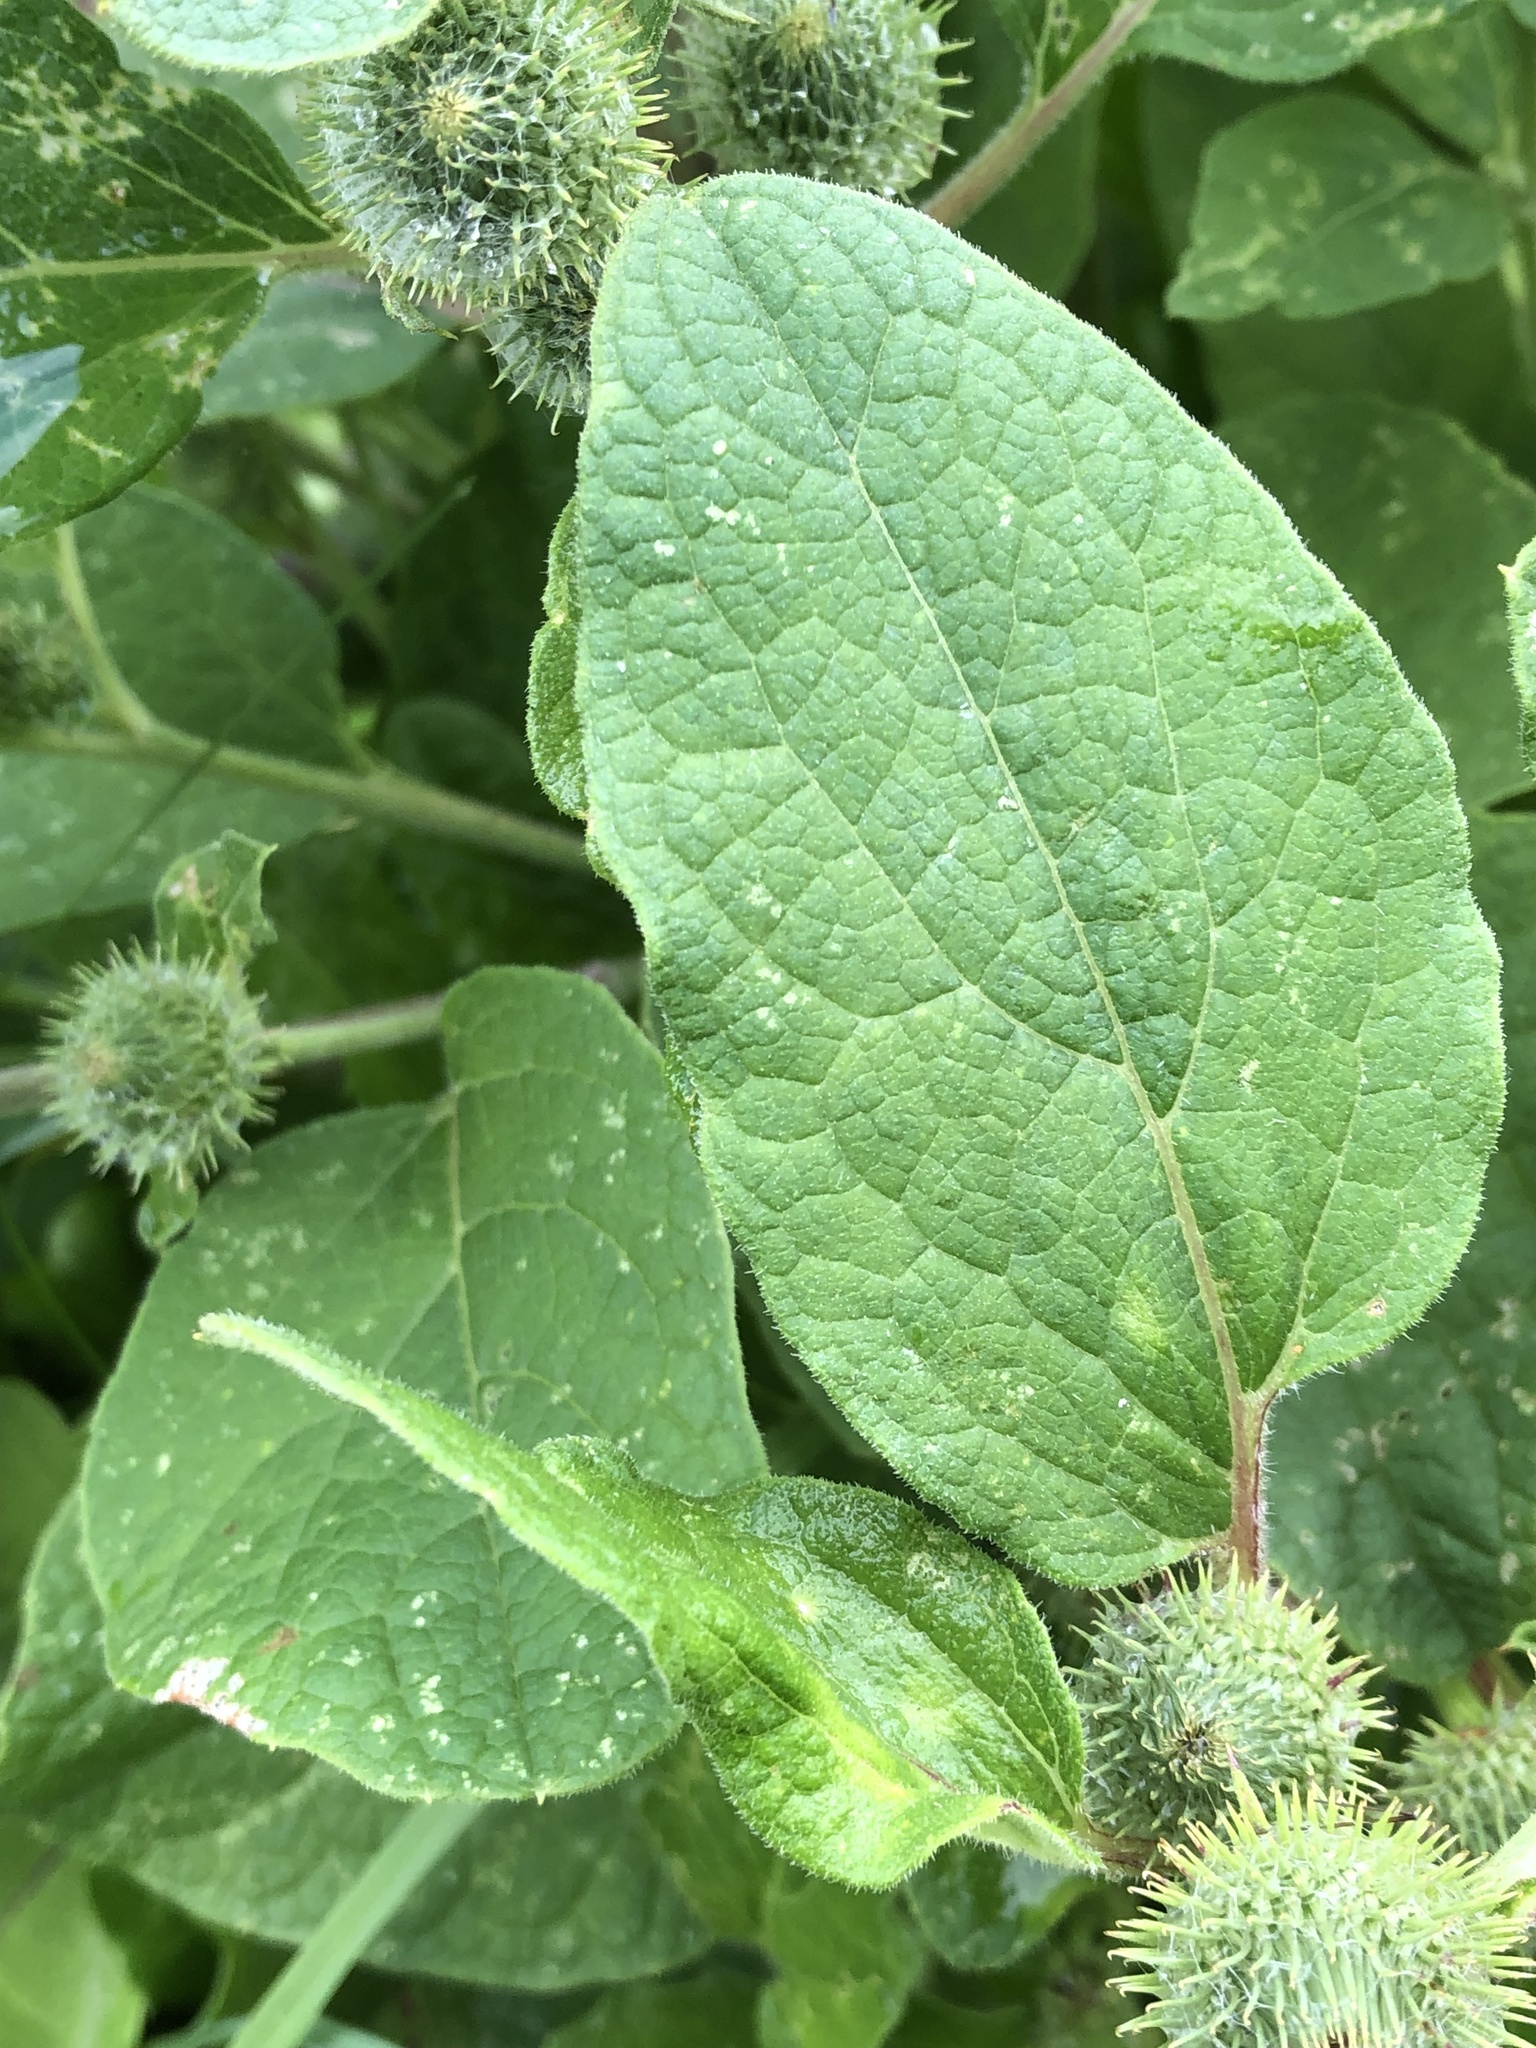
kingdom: Plantae
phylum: Tracheophyta
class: Magnoliopsida
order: Asterales
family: Asteraceae
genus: Arctium
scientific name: Arctium minus
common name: Lesser burdock
